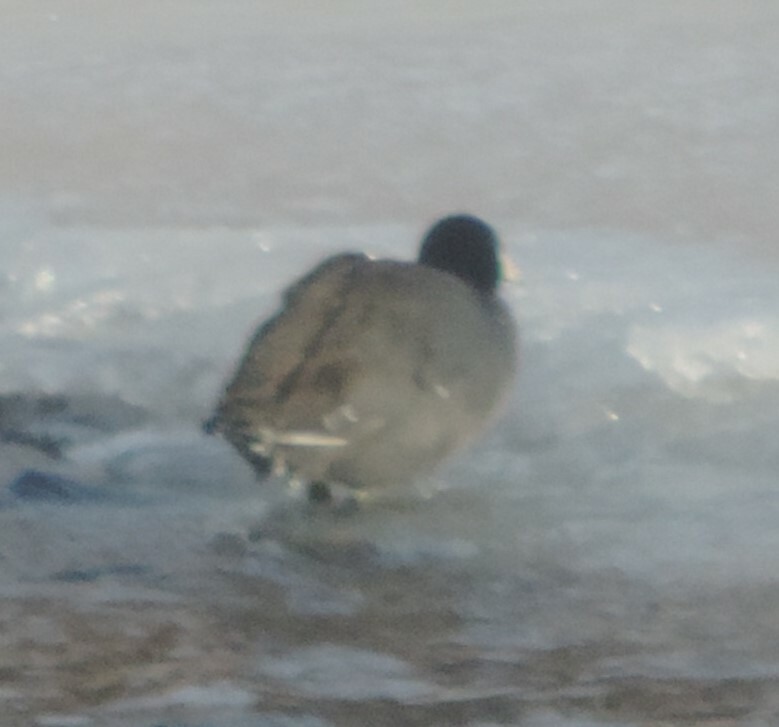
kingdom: Animalia
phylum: Chordata
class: Aves
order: Gruiformes
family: Rallidae
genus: Fulica
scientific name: Fulica americana
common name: American coot
